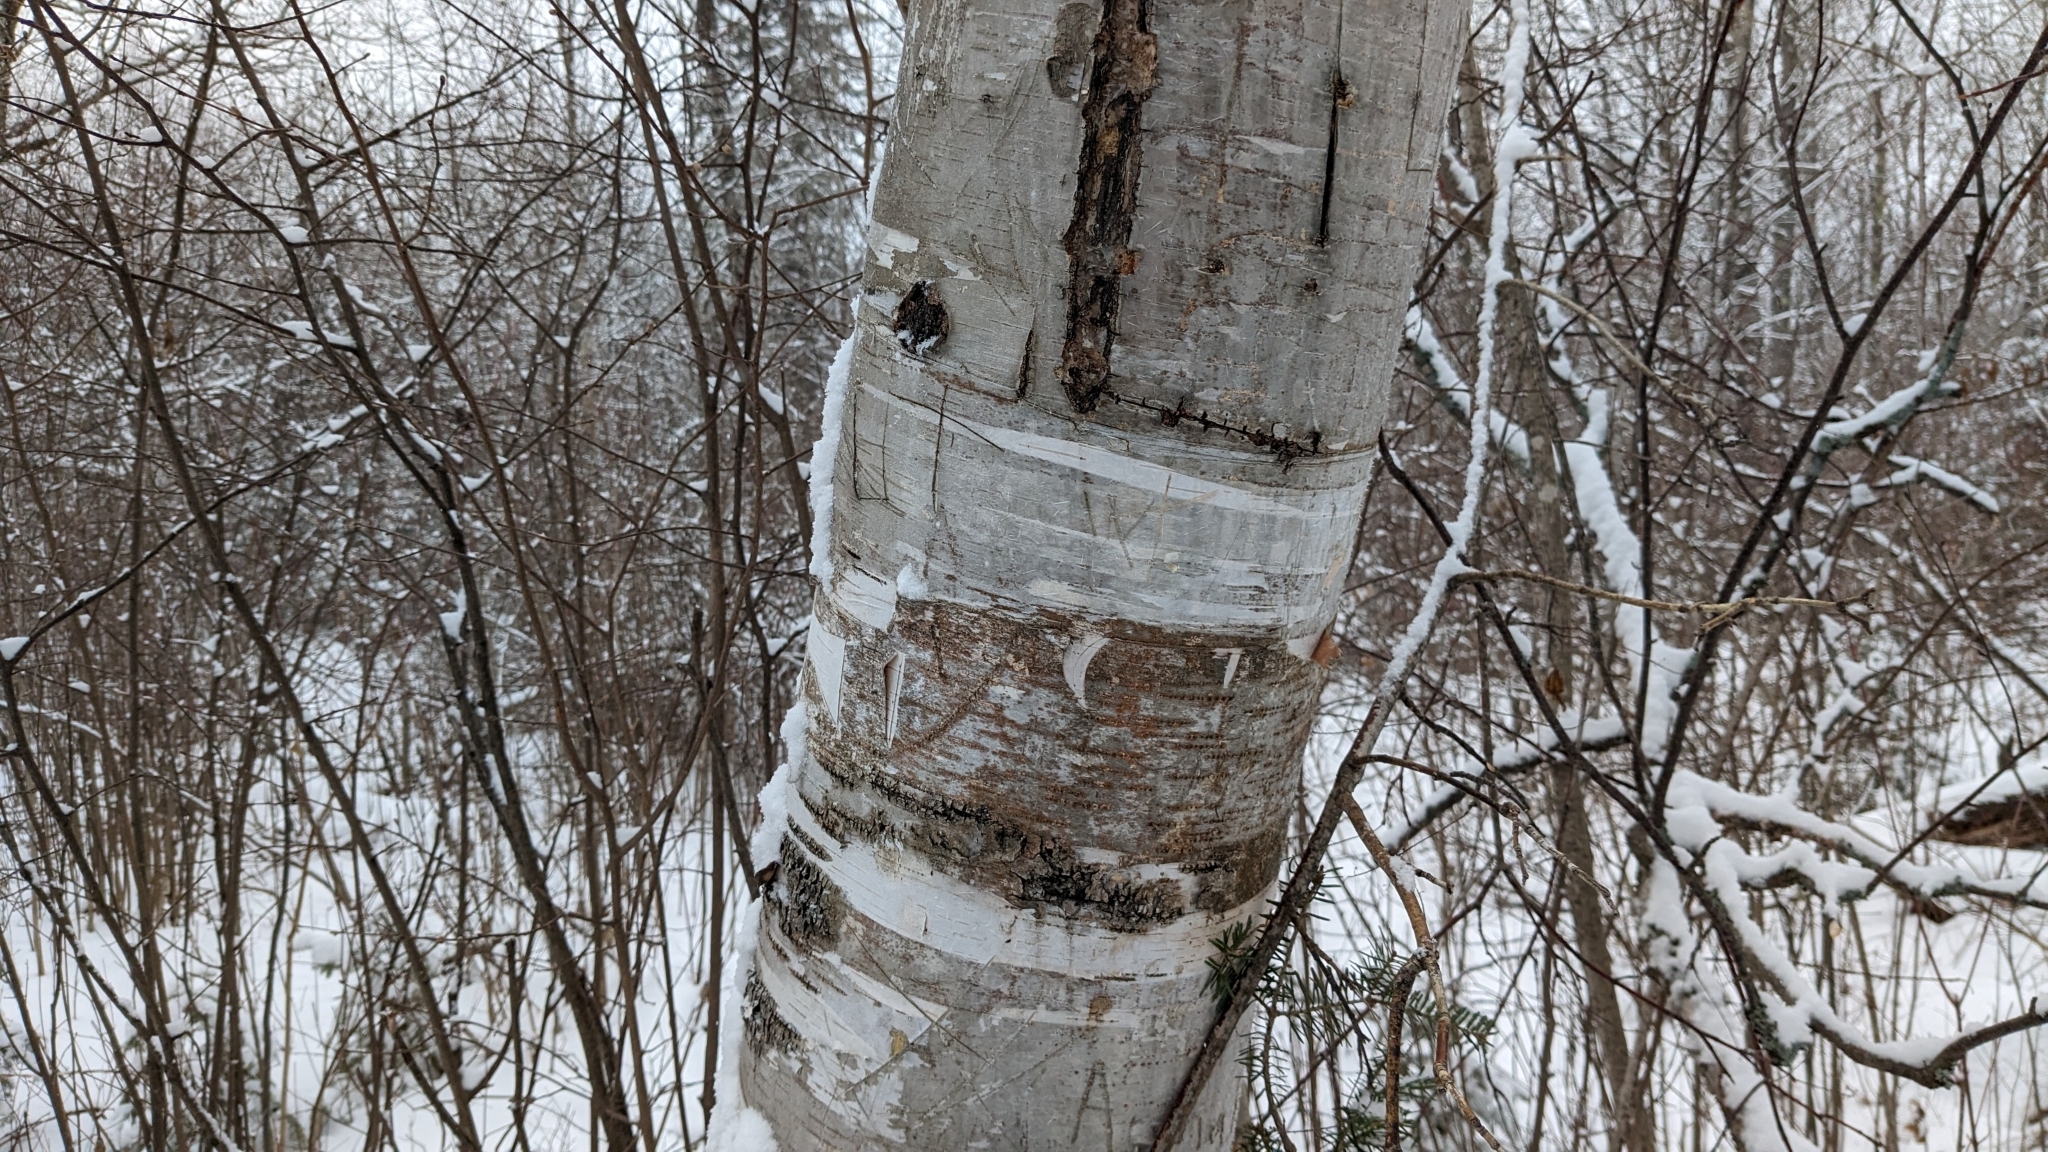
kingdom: Plantae
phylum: Tracheophyta
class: Magnoliopsida
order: Fagales
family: Betulaceae
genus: Betula
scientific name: Betula papyrifera
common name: Paper birch
